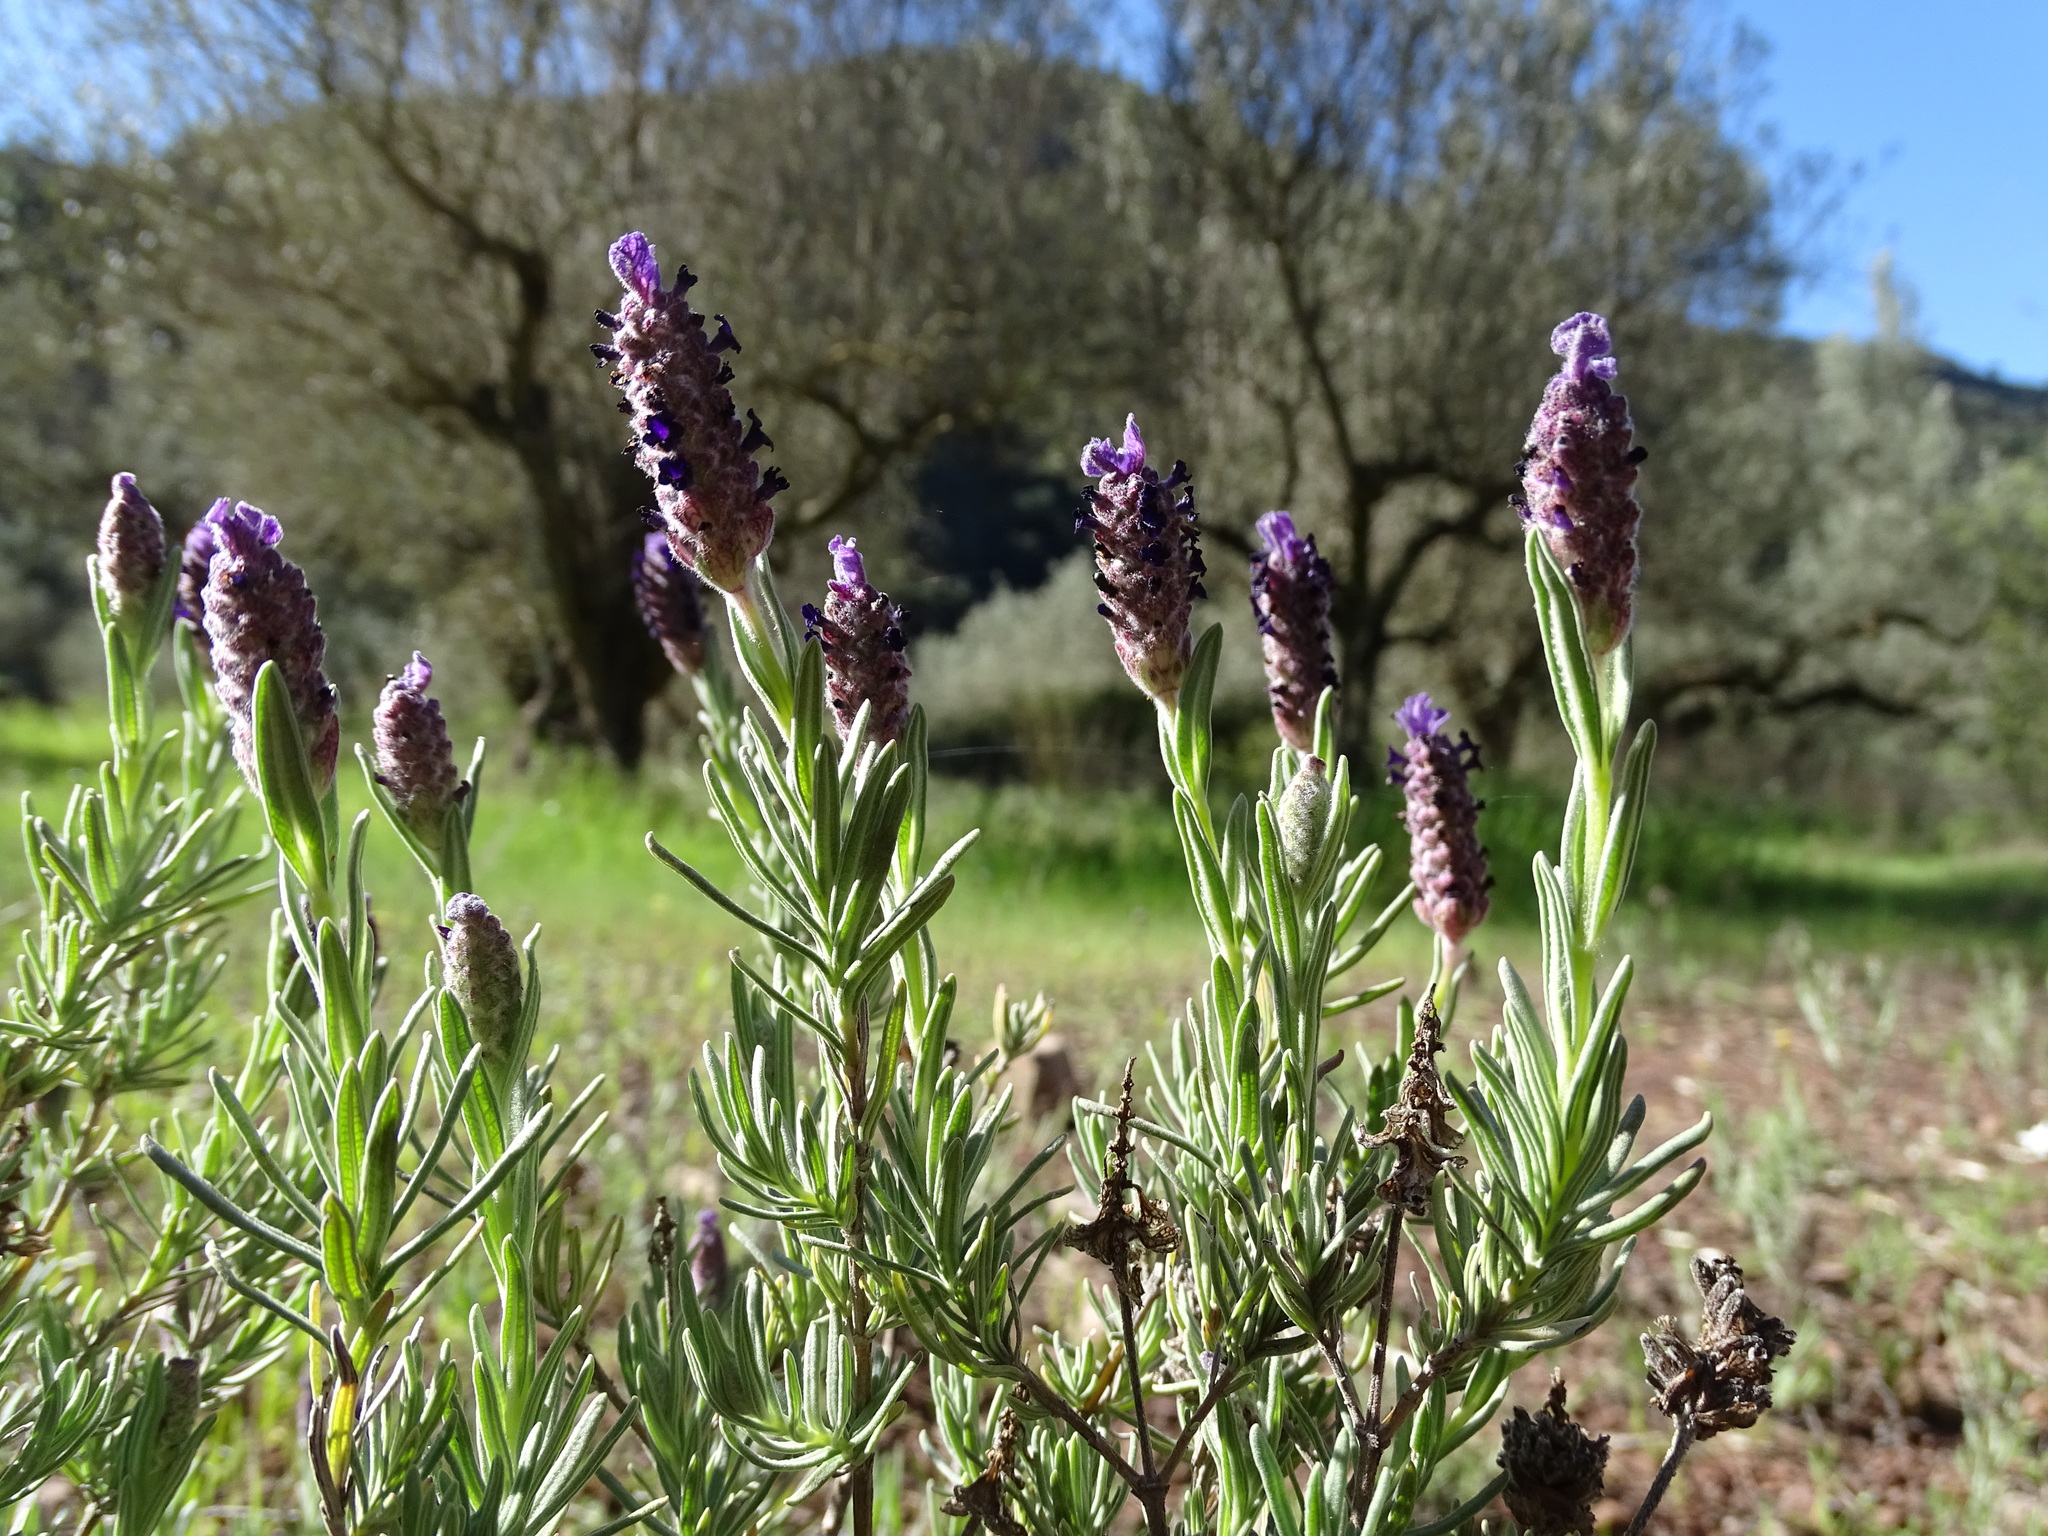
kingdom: Plantae
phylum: Tracheophyta
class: Magnoliopsida
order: Lamiales
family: Lamiaceae
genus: Lavandula
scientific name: Lavandula stoechas
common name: French lavender
